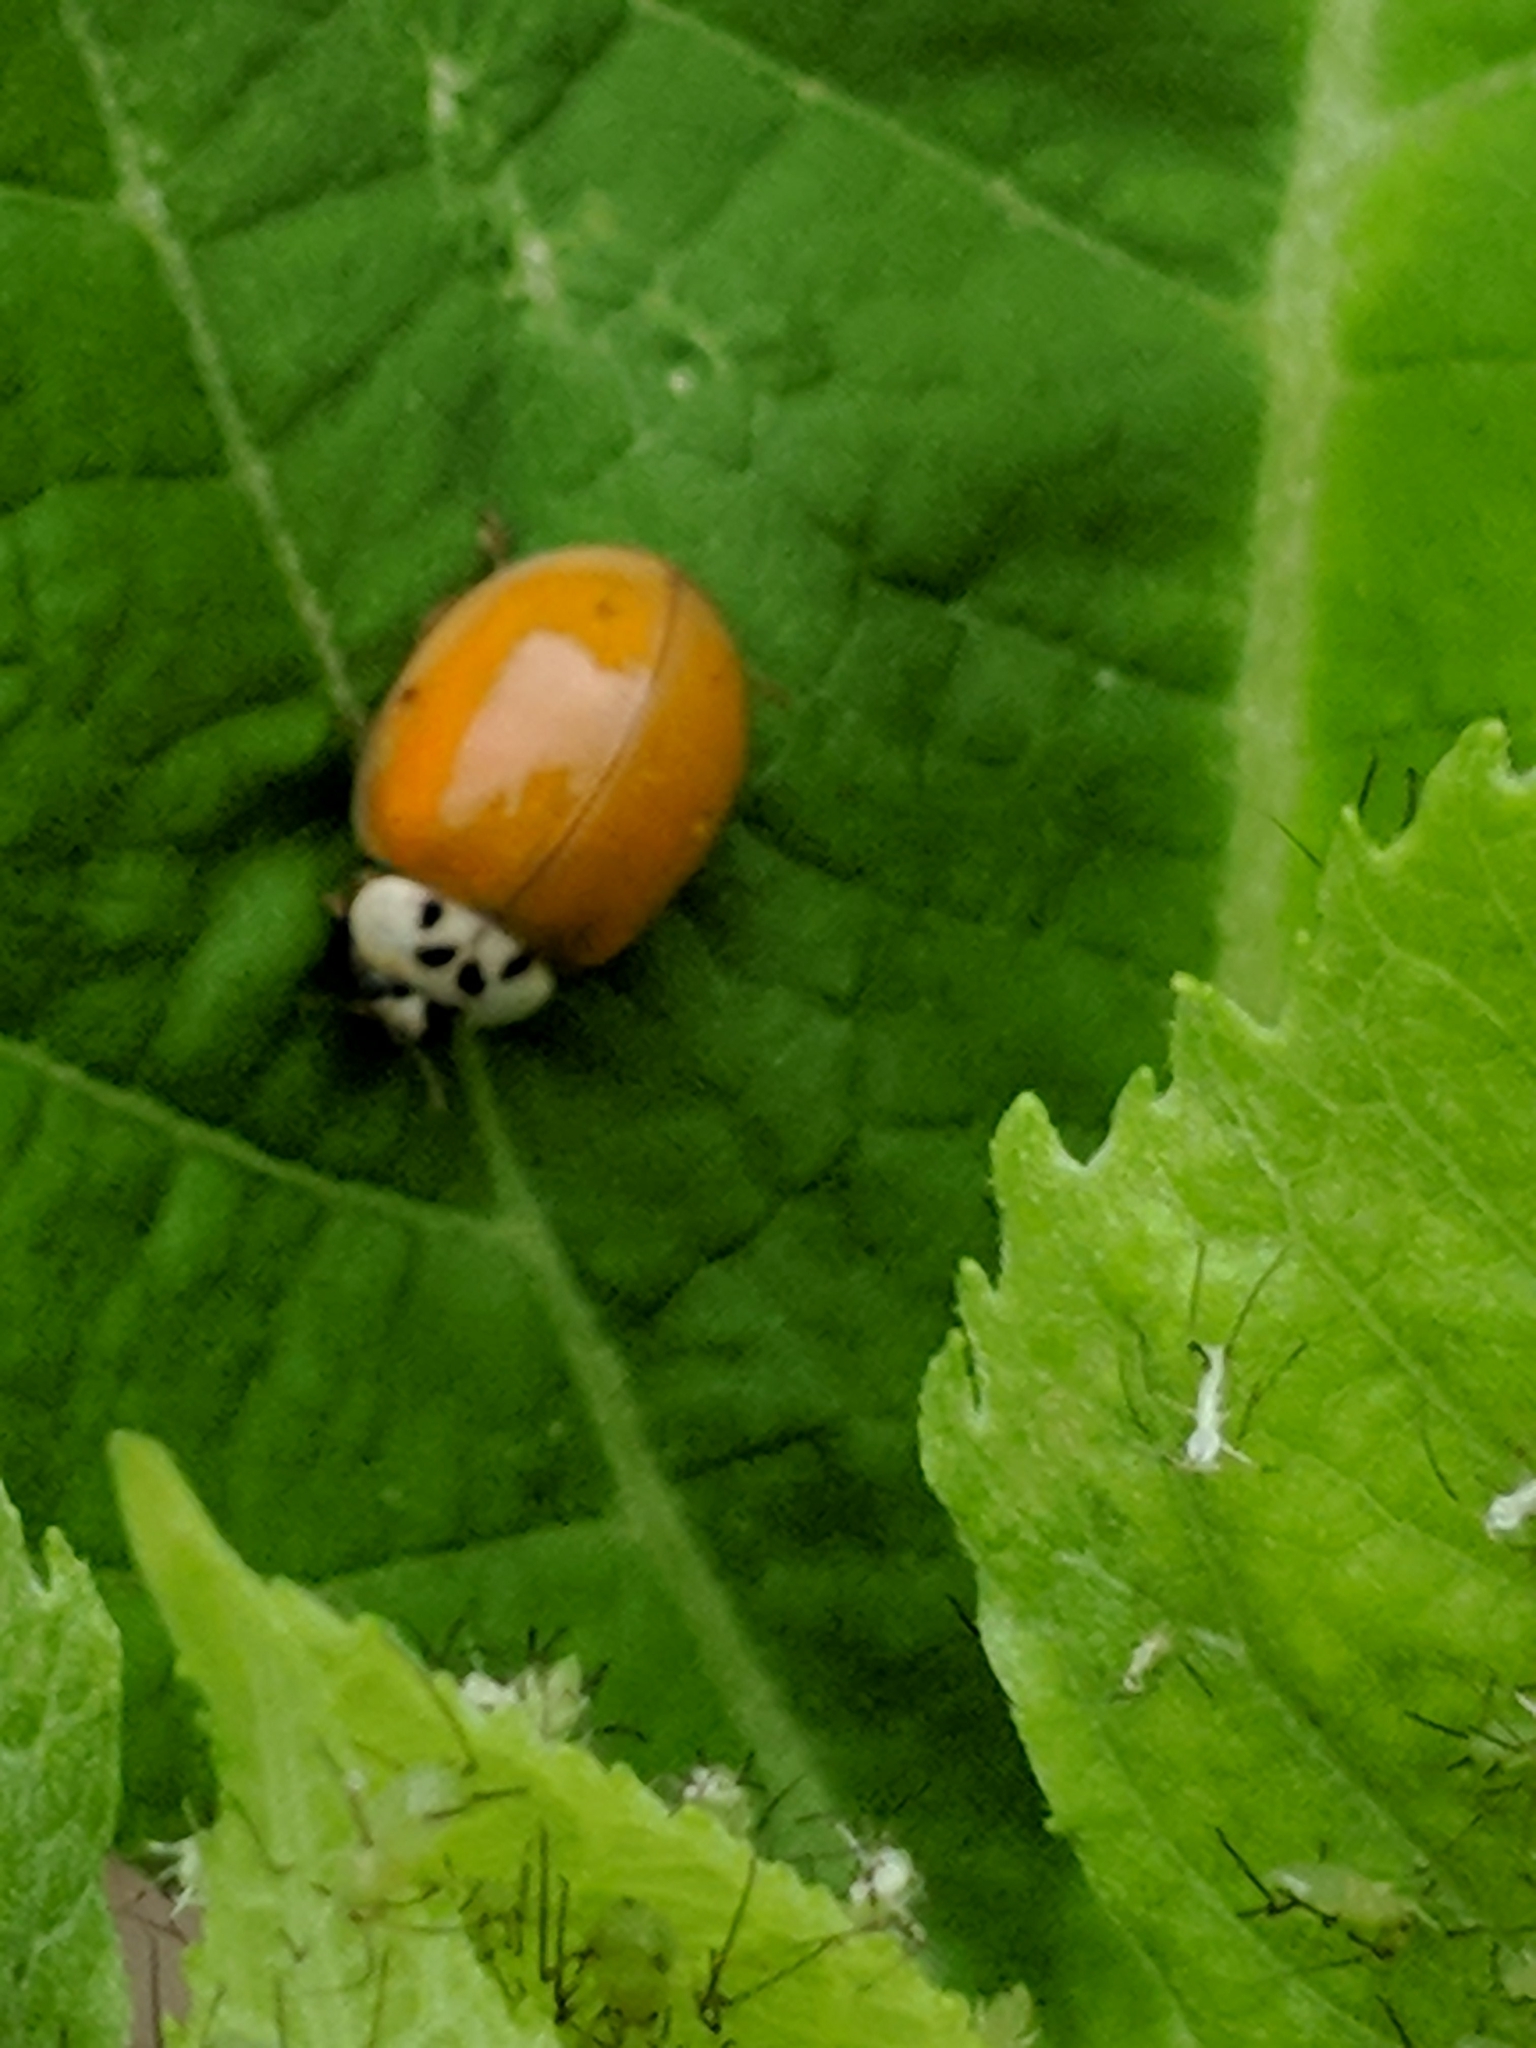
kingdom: Animalia
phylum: Arthropoda
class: Insecta
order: Coleoptera
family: Coccinellidae
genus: Harmonia
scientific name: Harmonia axyridis
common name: Harlequin ladybird
